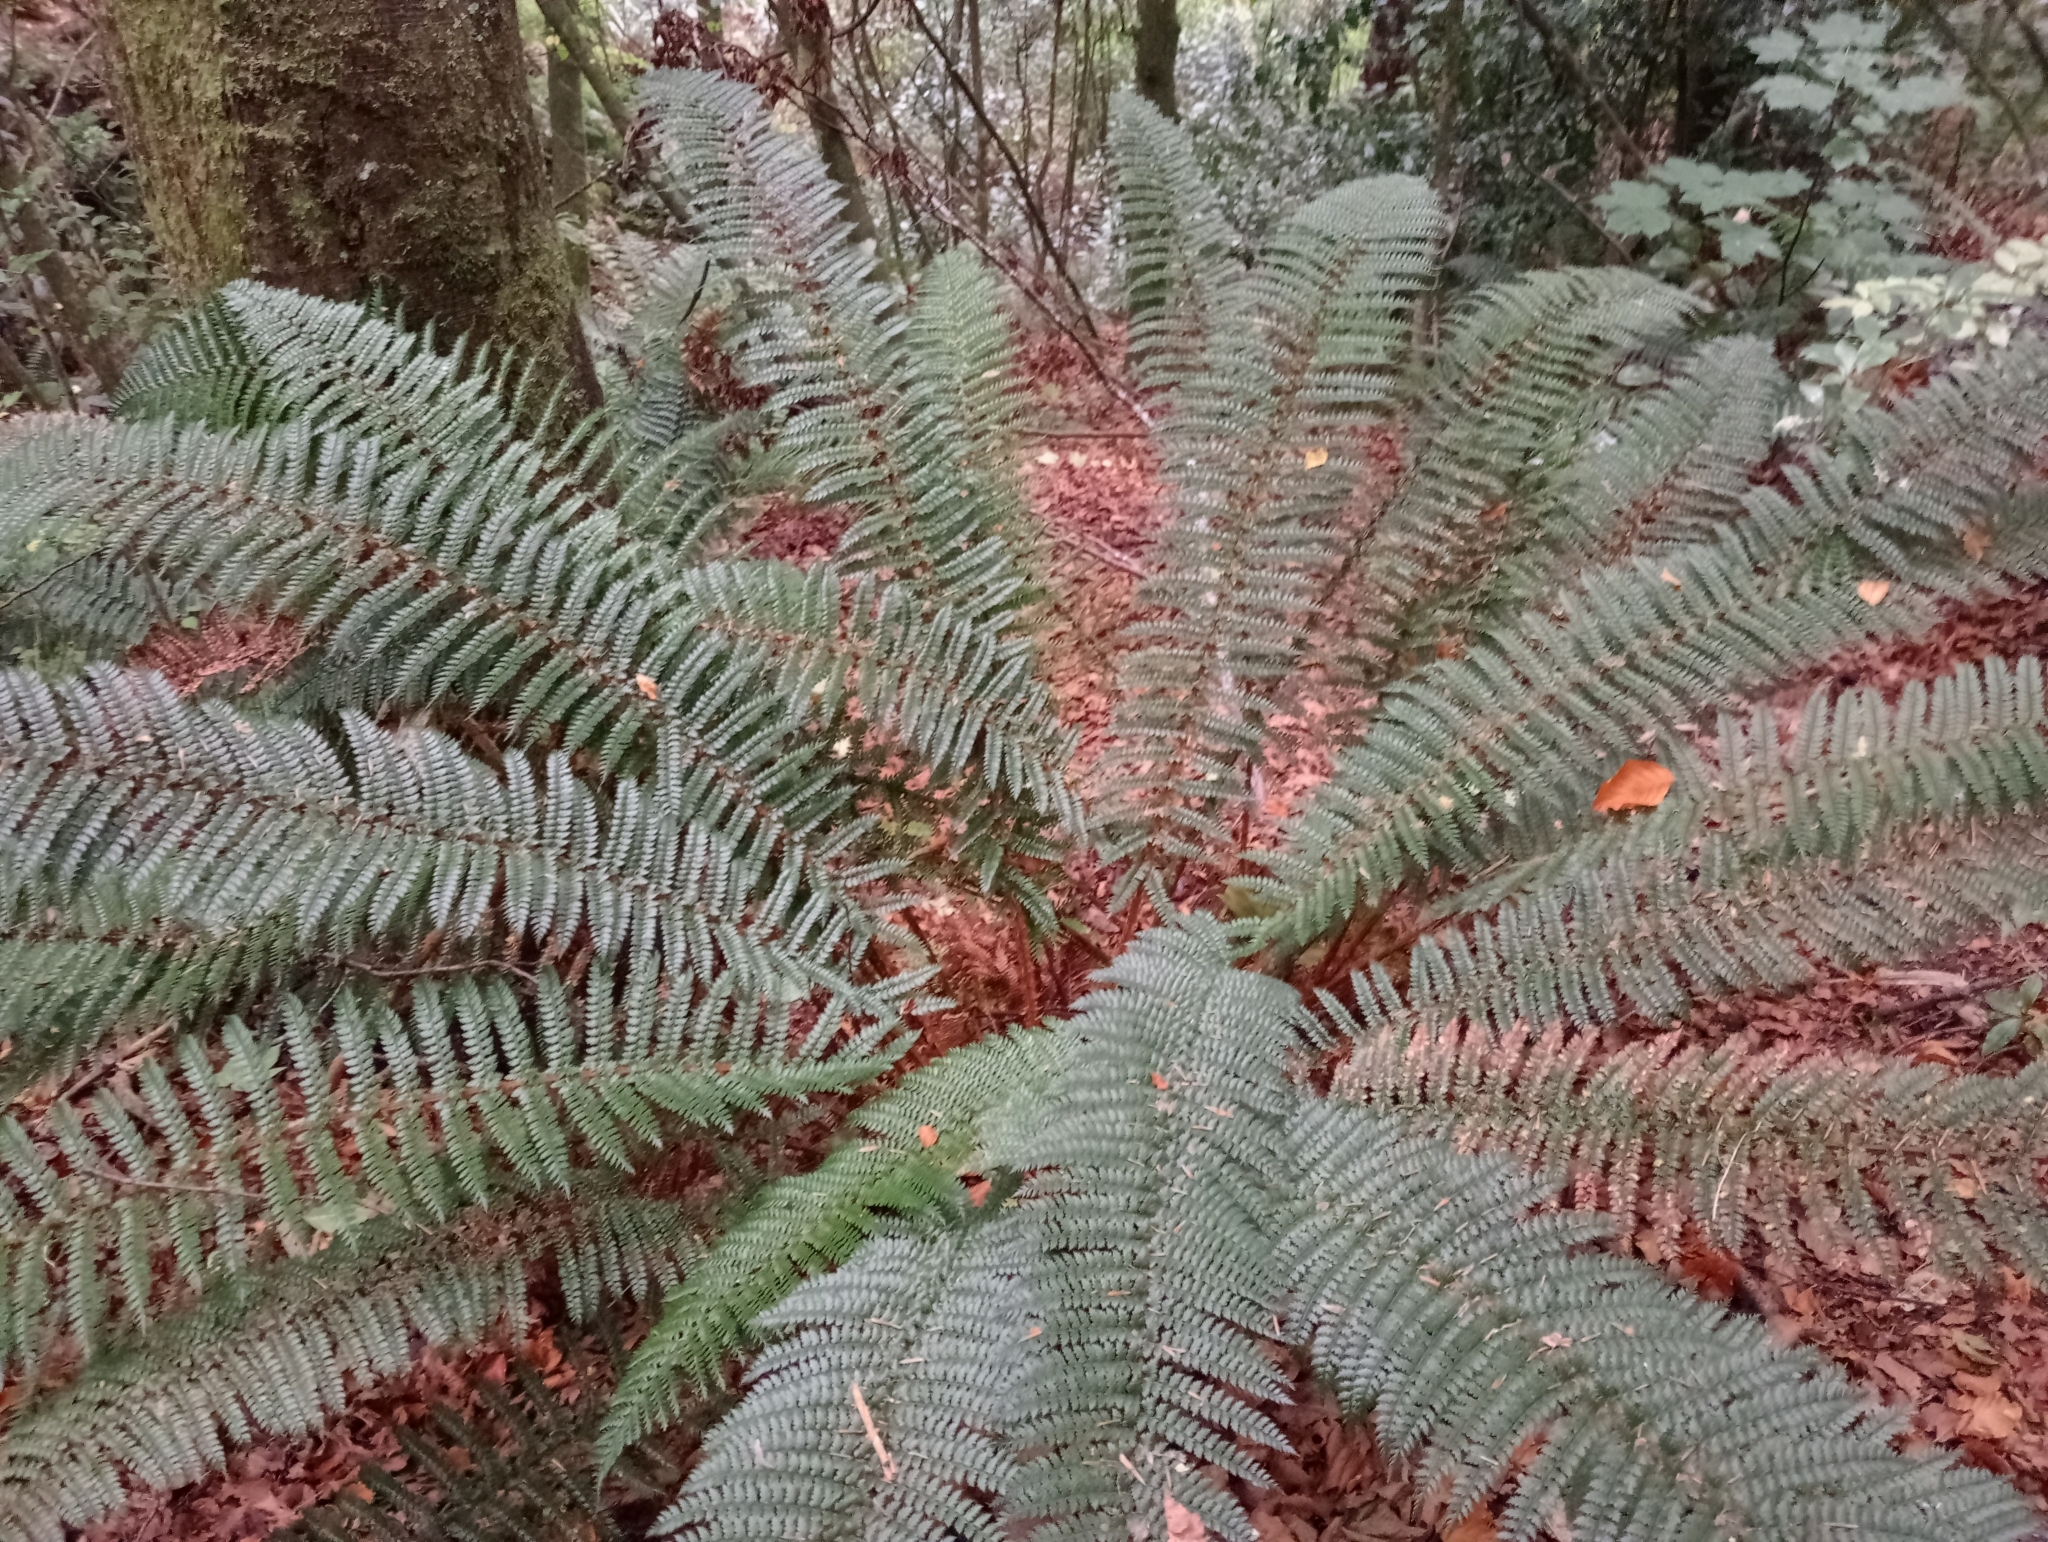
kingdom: Plantae
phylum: Tracheophyta
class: Polypodiopsida
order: Polypodiales
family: Dryopteridaceae
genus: Polystichum
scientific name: Polystichum vestitum
